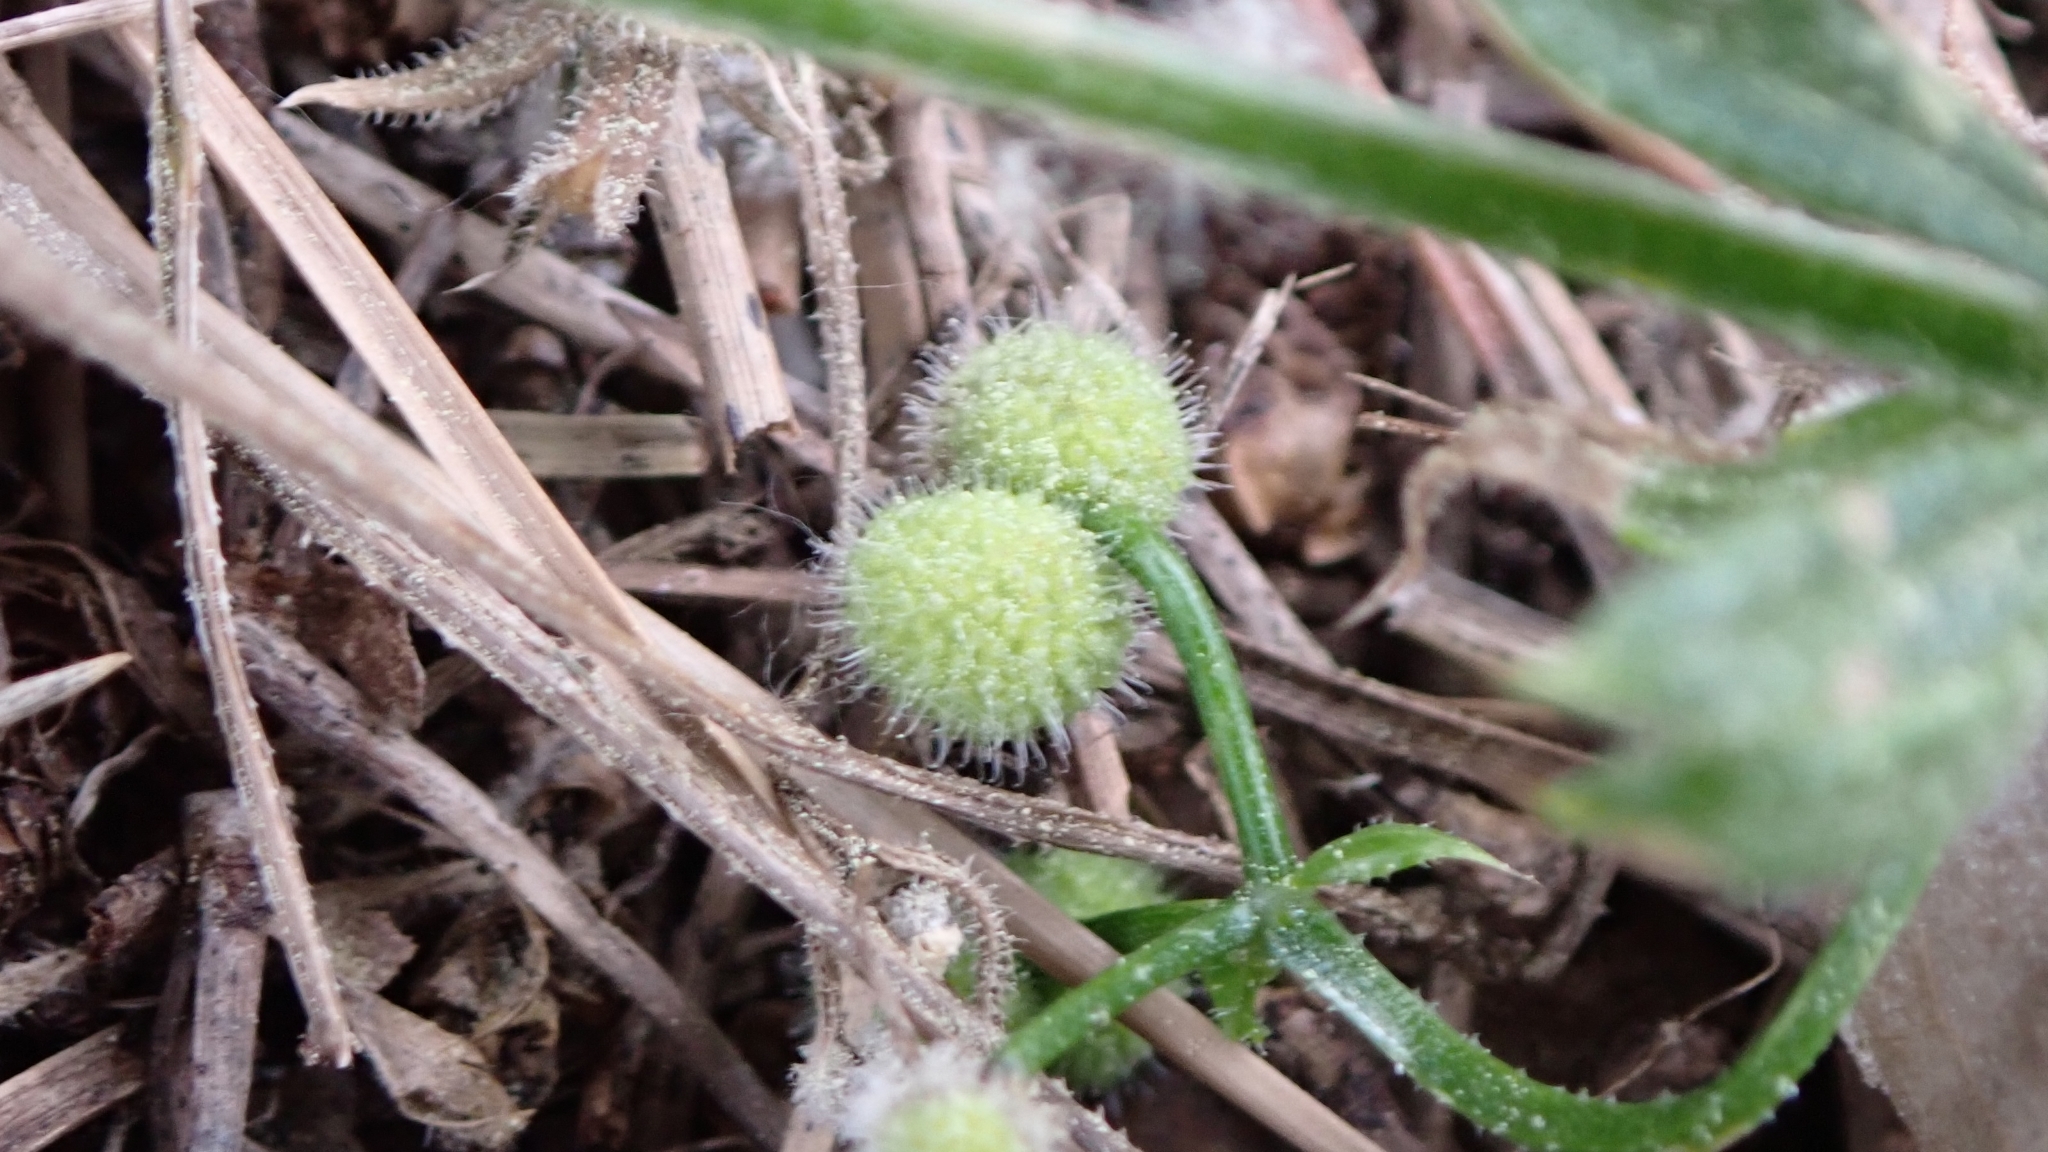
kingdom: Plantae
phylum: Tracheophyta
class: Magnoliopsida
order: Gentianales
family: Rubiaceae
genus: Galium
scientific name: Galium aparine
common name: Cleavers
